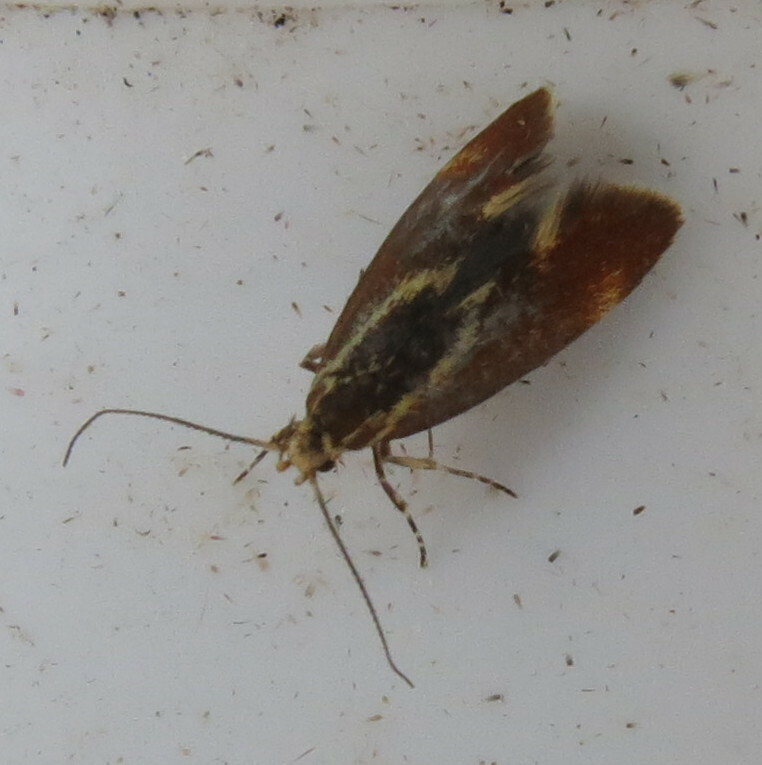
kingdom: Animalia
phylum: Arthropoda
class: Insecta
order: Lepidoptera
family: Oecophoridae
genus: Borkhausenia
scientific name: Borkhausenia italica
